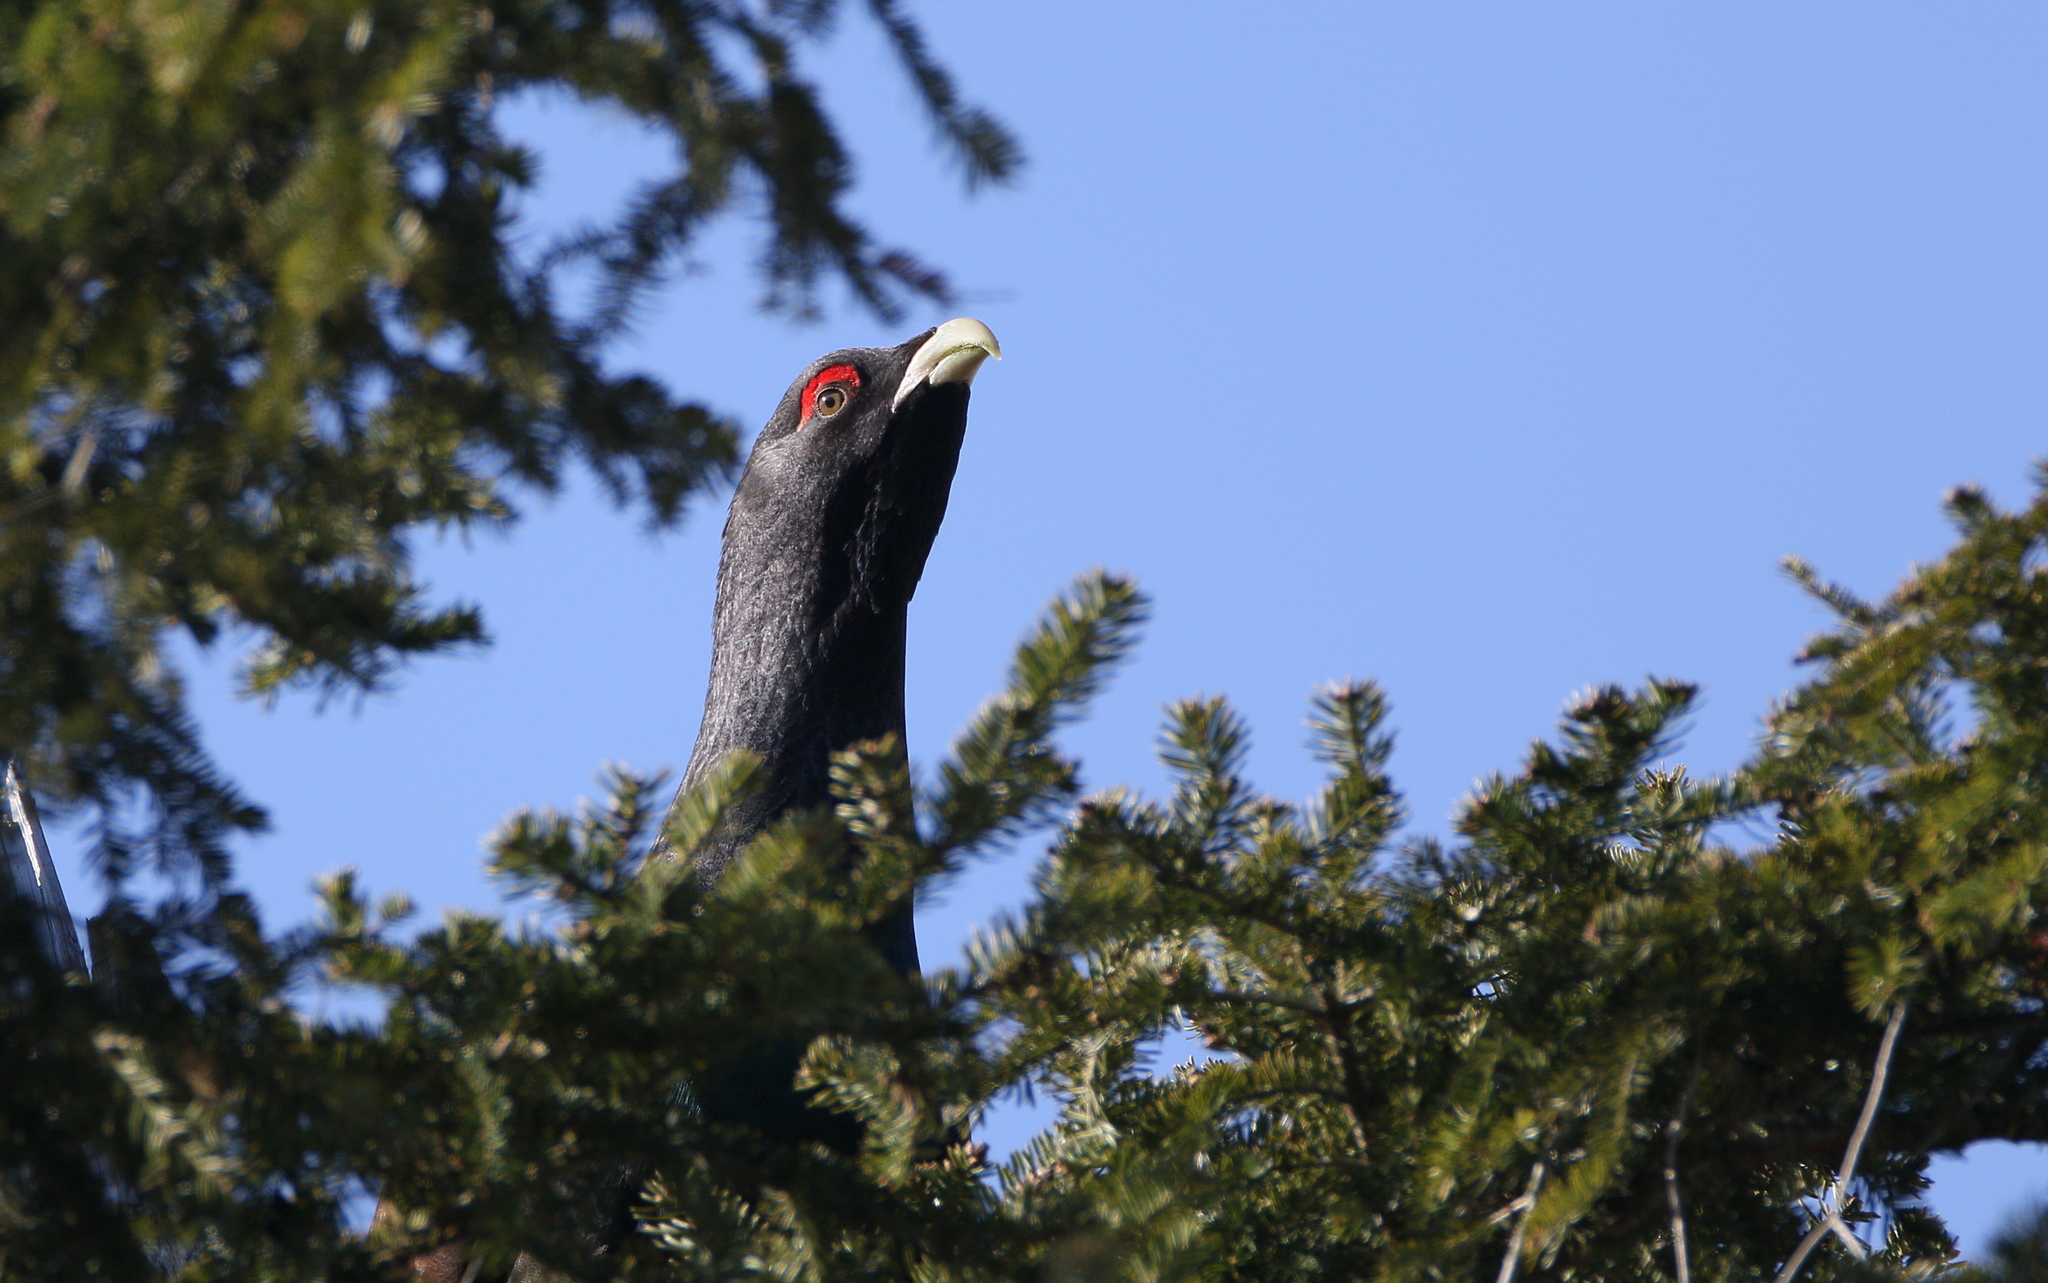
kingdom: Animalia
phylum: Chordata
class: Aves
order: Galliformes
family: Phasianidae
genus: Tetrao
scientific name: Tetrao urogallus
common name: Western capercaillie
